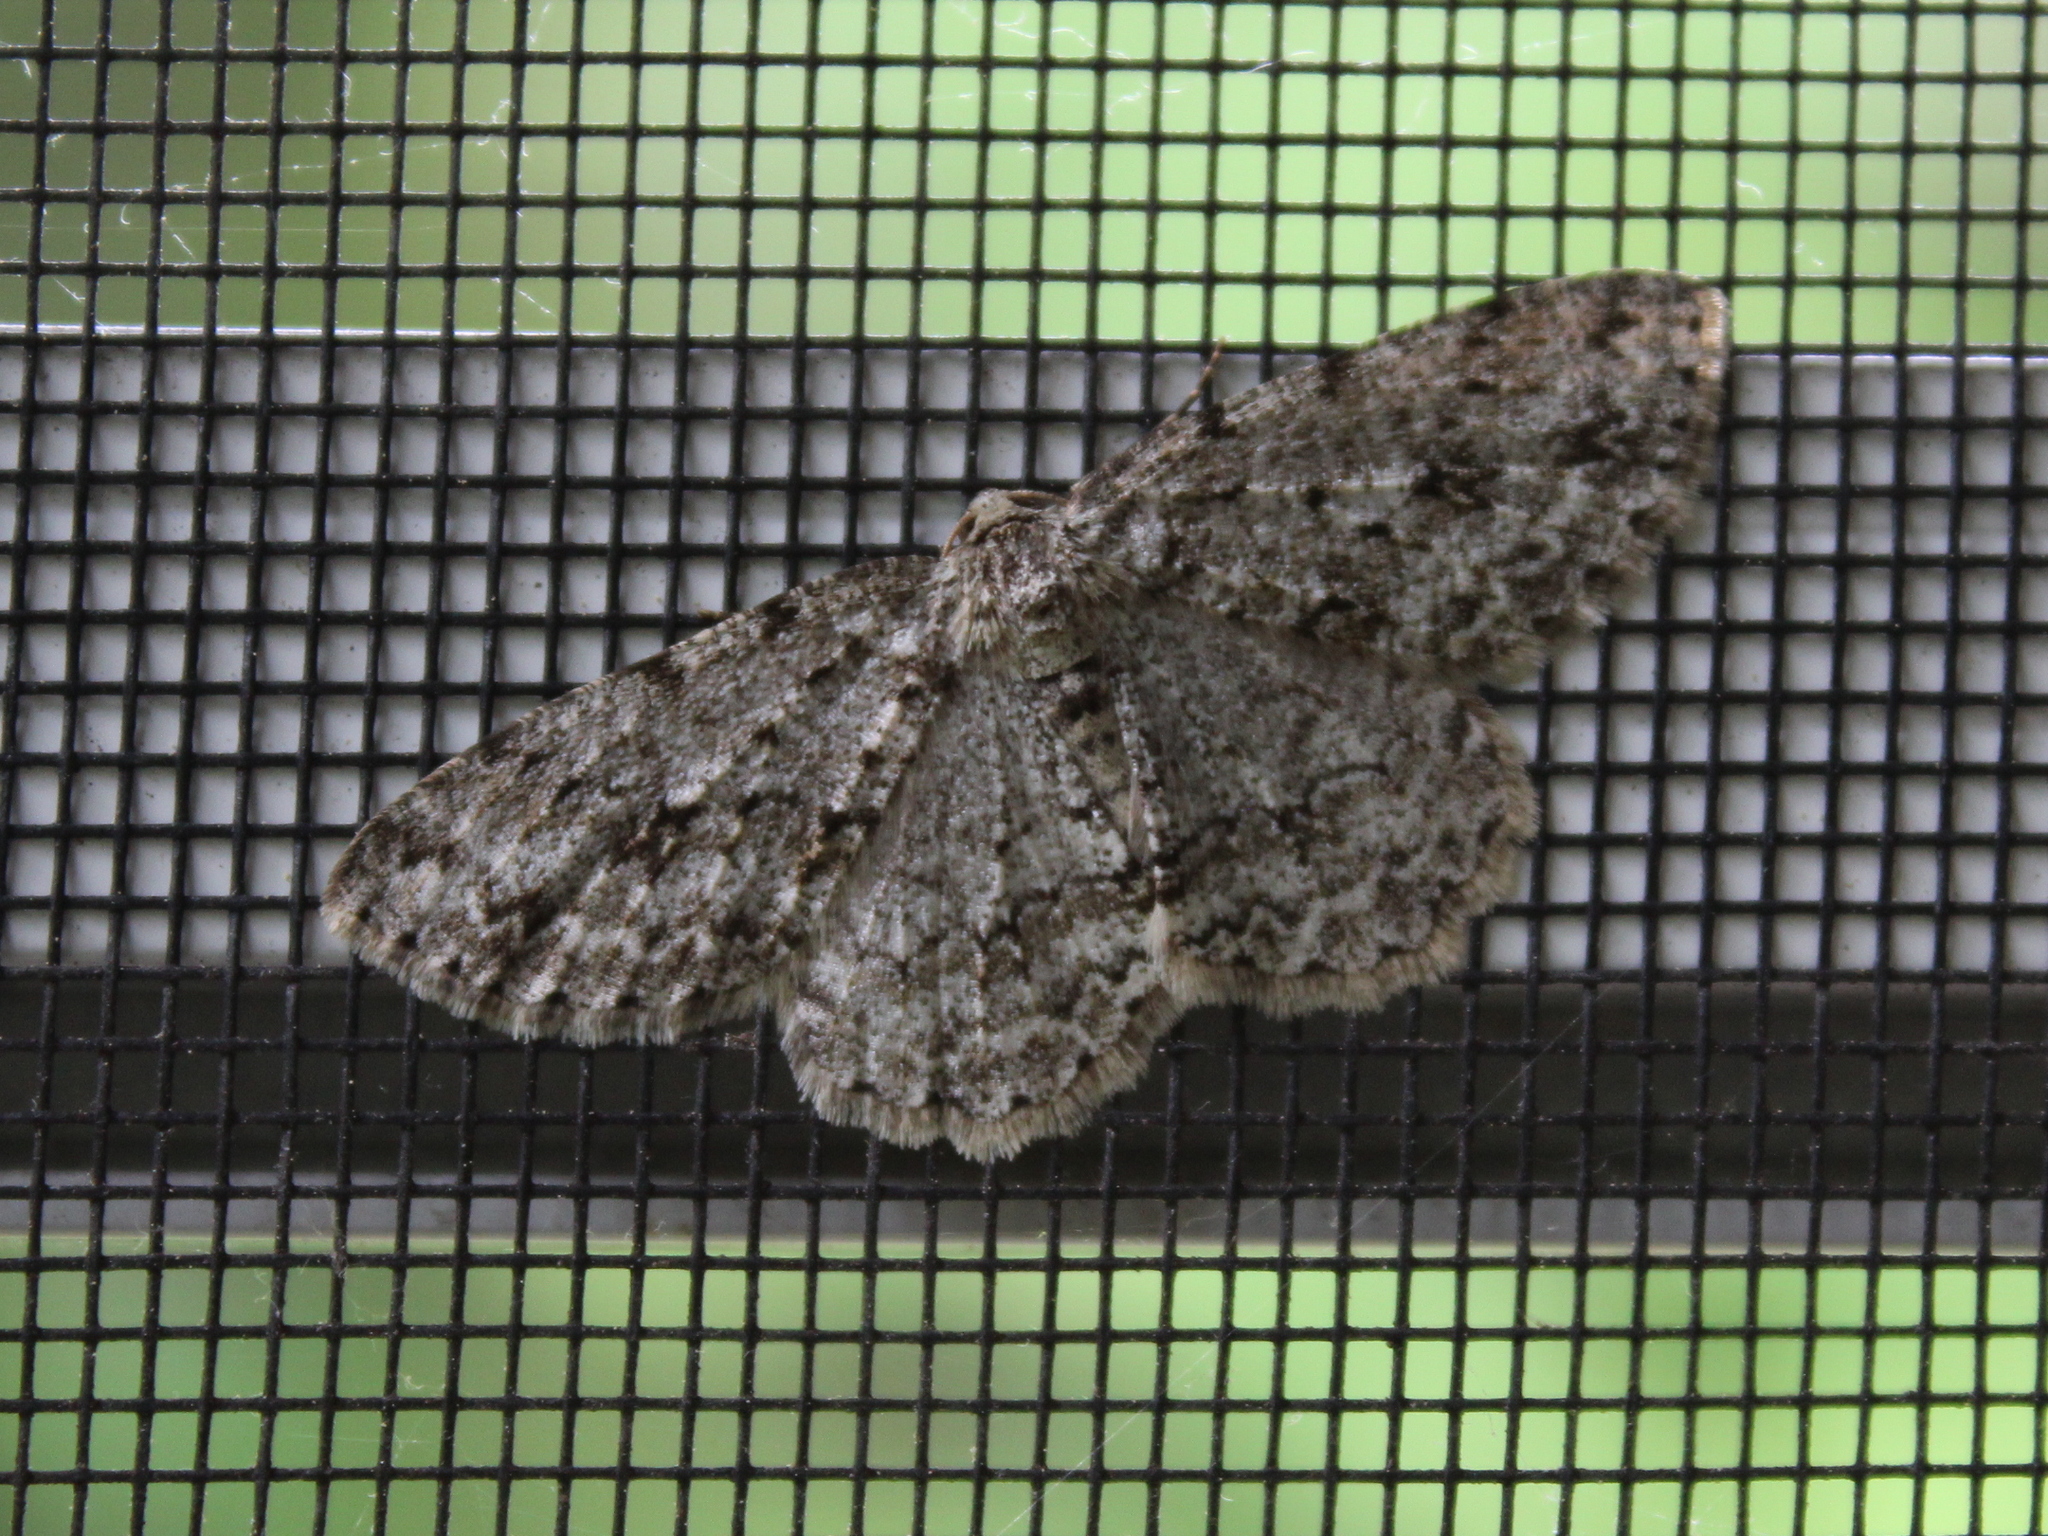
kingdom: Animalia
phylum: Arthropoda
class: Insecta
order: Lepidoptera
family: Geometridae
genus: Ectropis
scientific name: Ectropis crepuscularia
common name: Engrailed
